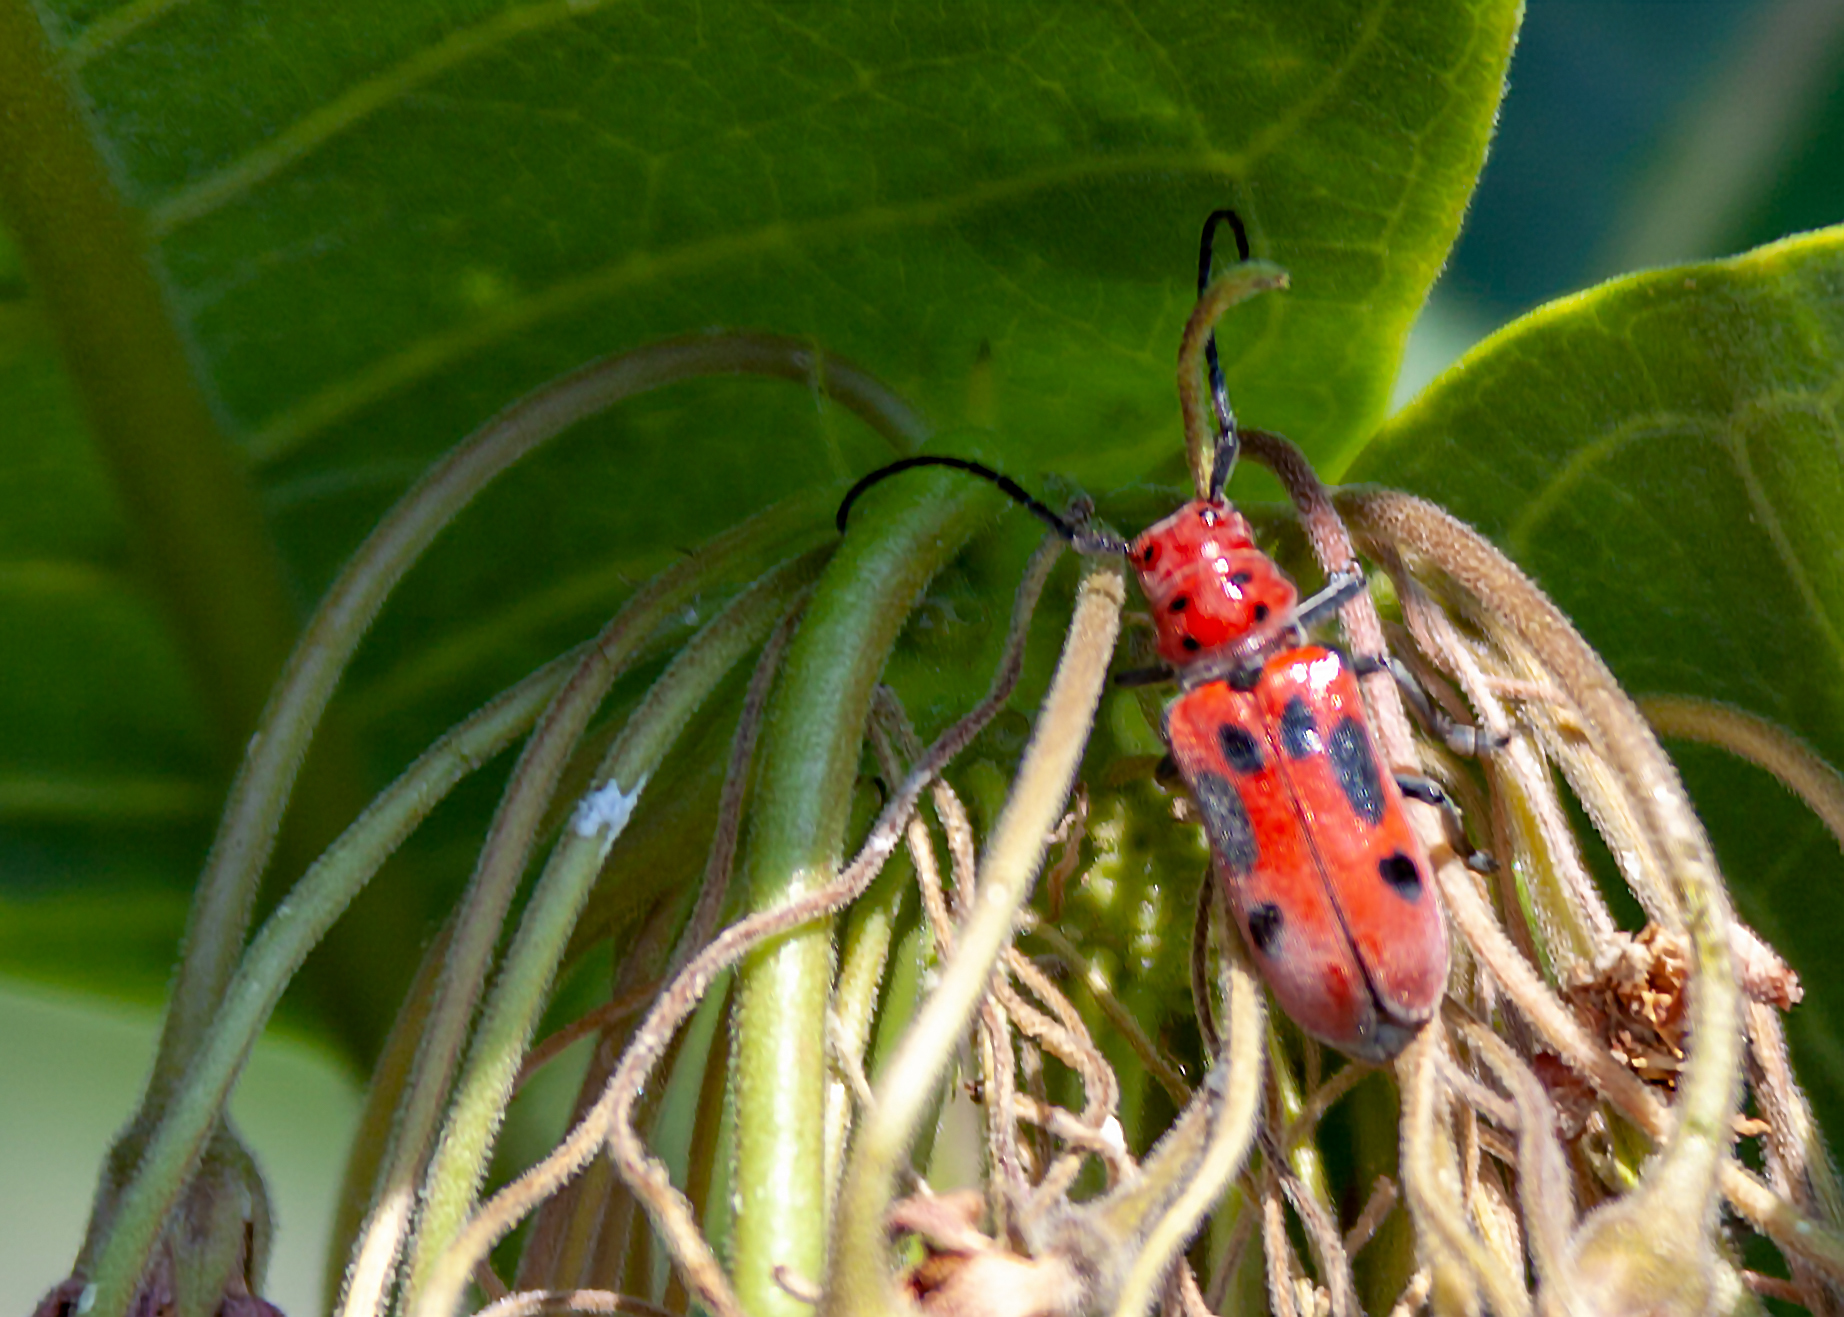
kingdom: Animalia
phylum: Arthropoda
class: Insecta
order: Coleoptera
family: Cerambycidae
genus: Tetraopes
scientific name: Tetraopes tetrophthalmus
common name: Red milkweed beetle
